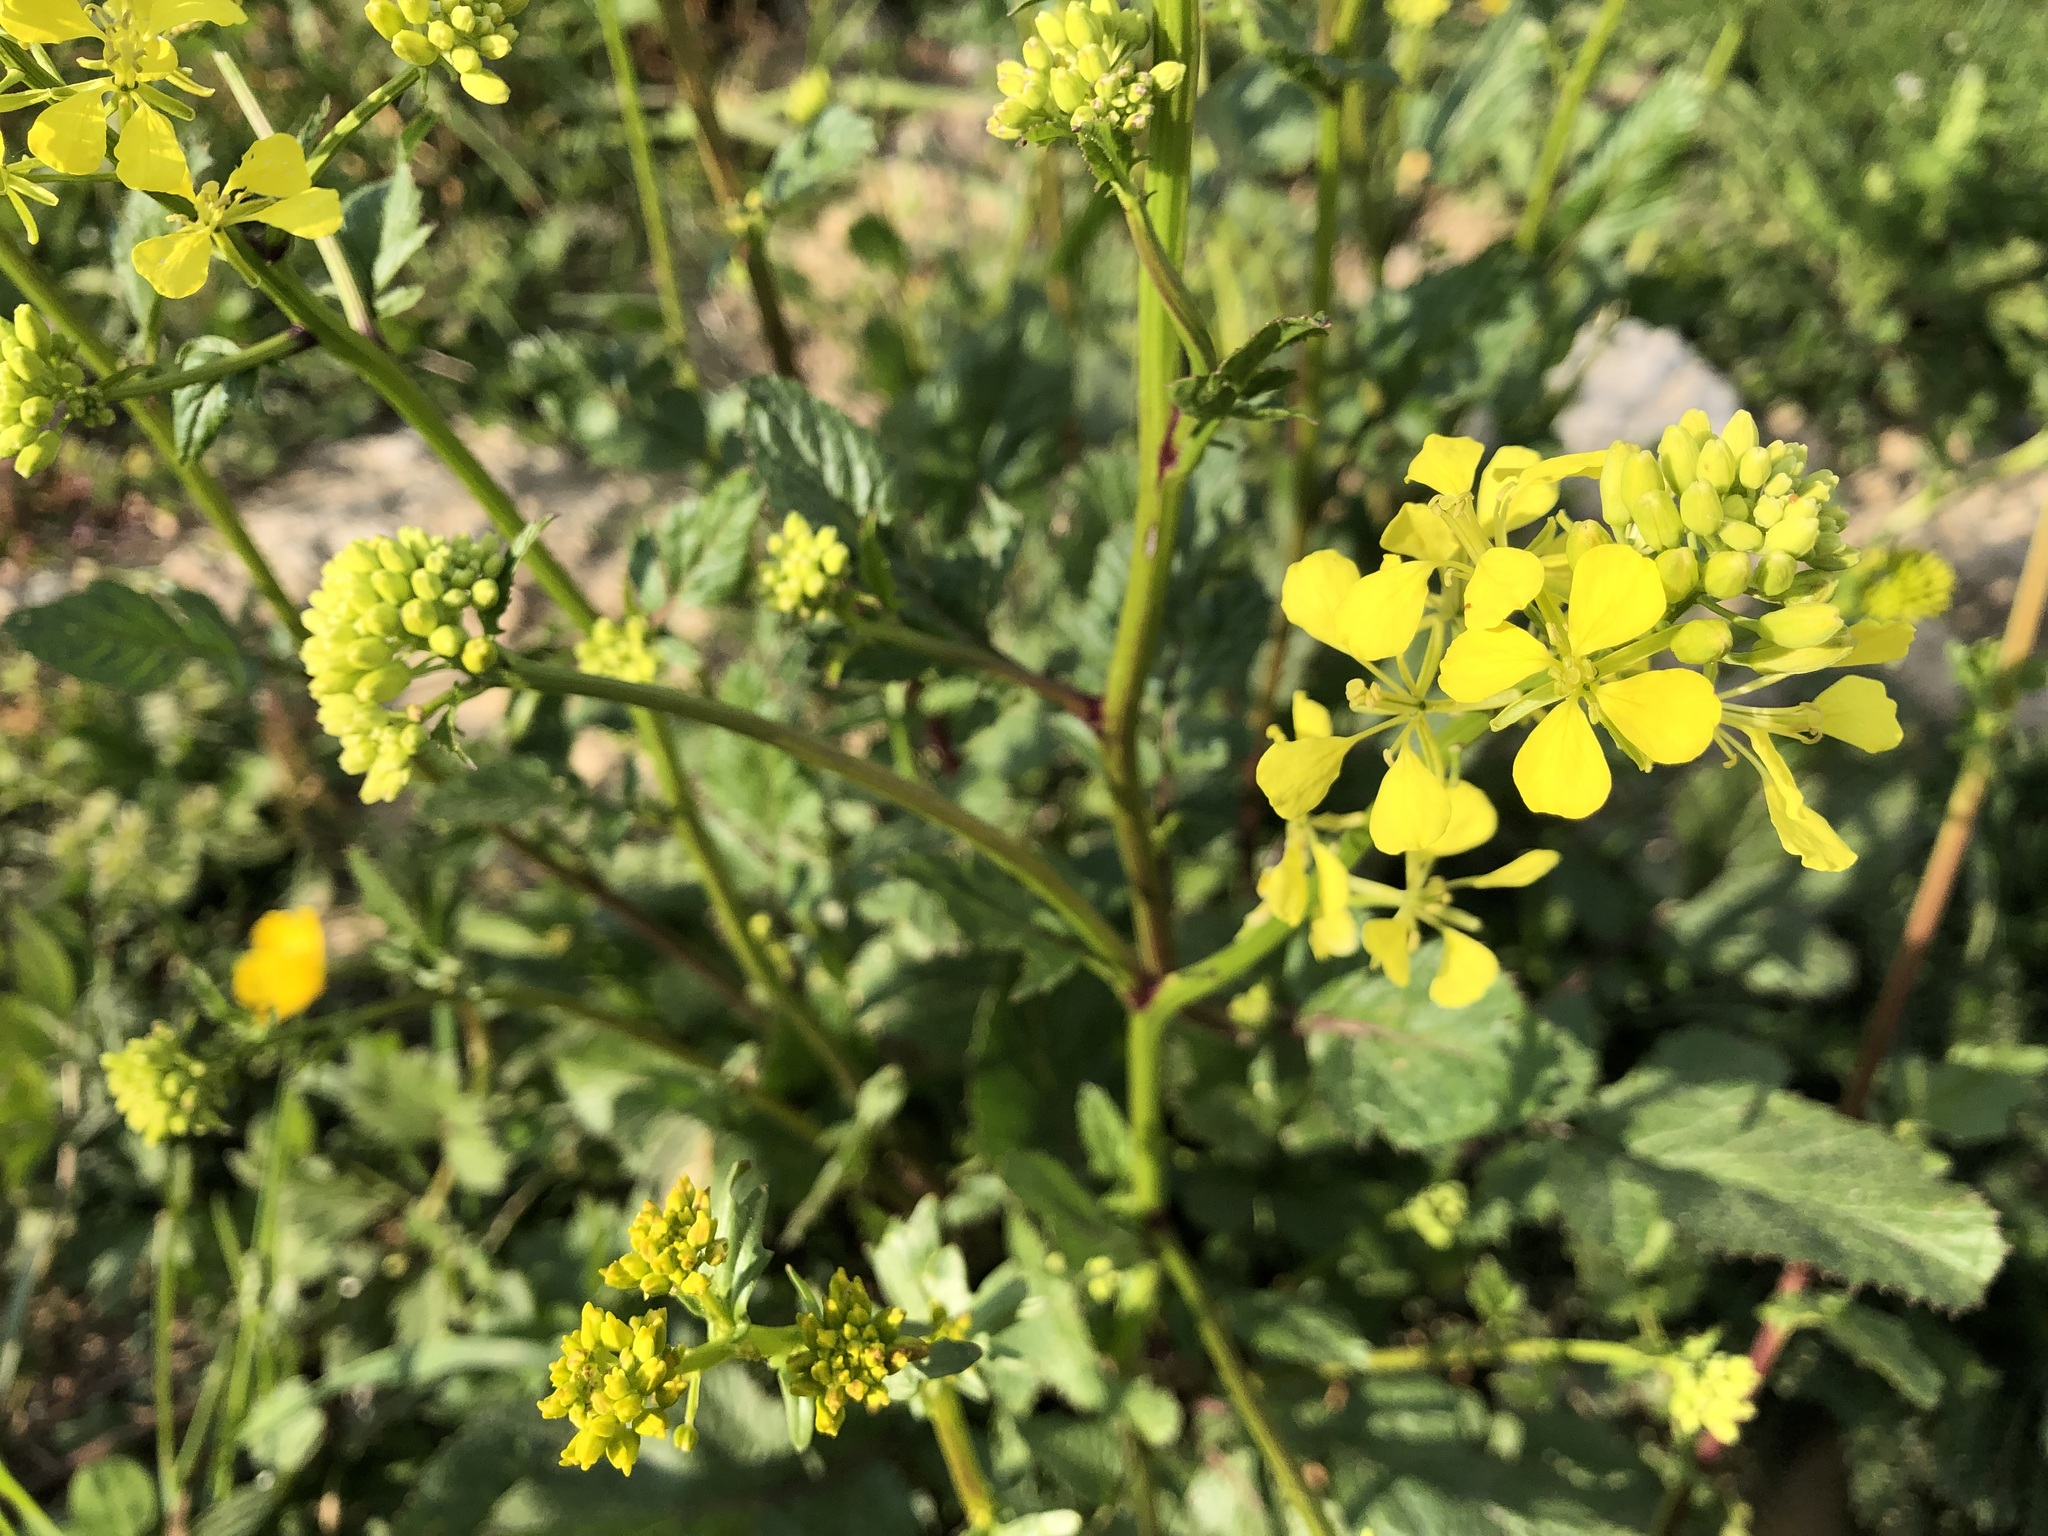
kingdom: Plantae
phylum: Tracheophyta
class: Magnoliopsida
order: Brassicales
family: Brassicaceae
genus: Sinapis
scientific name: Sinapis arvensis
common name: Charlock
